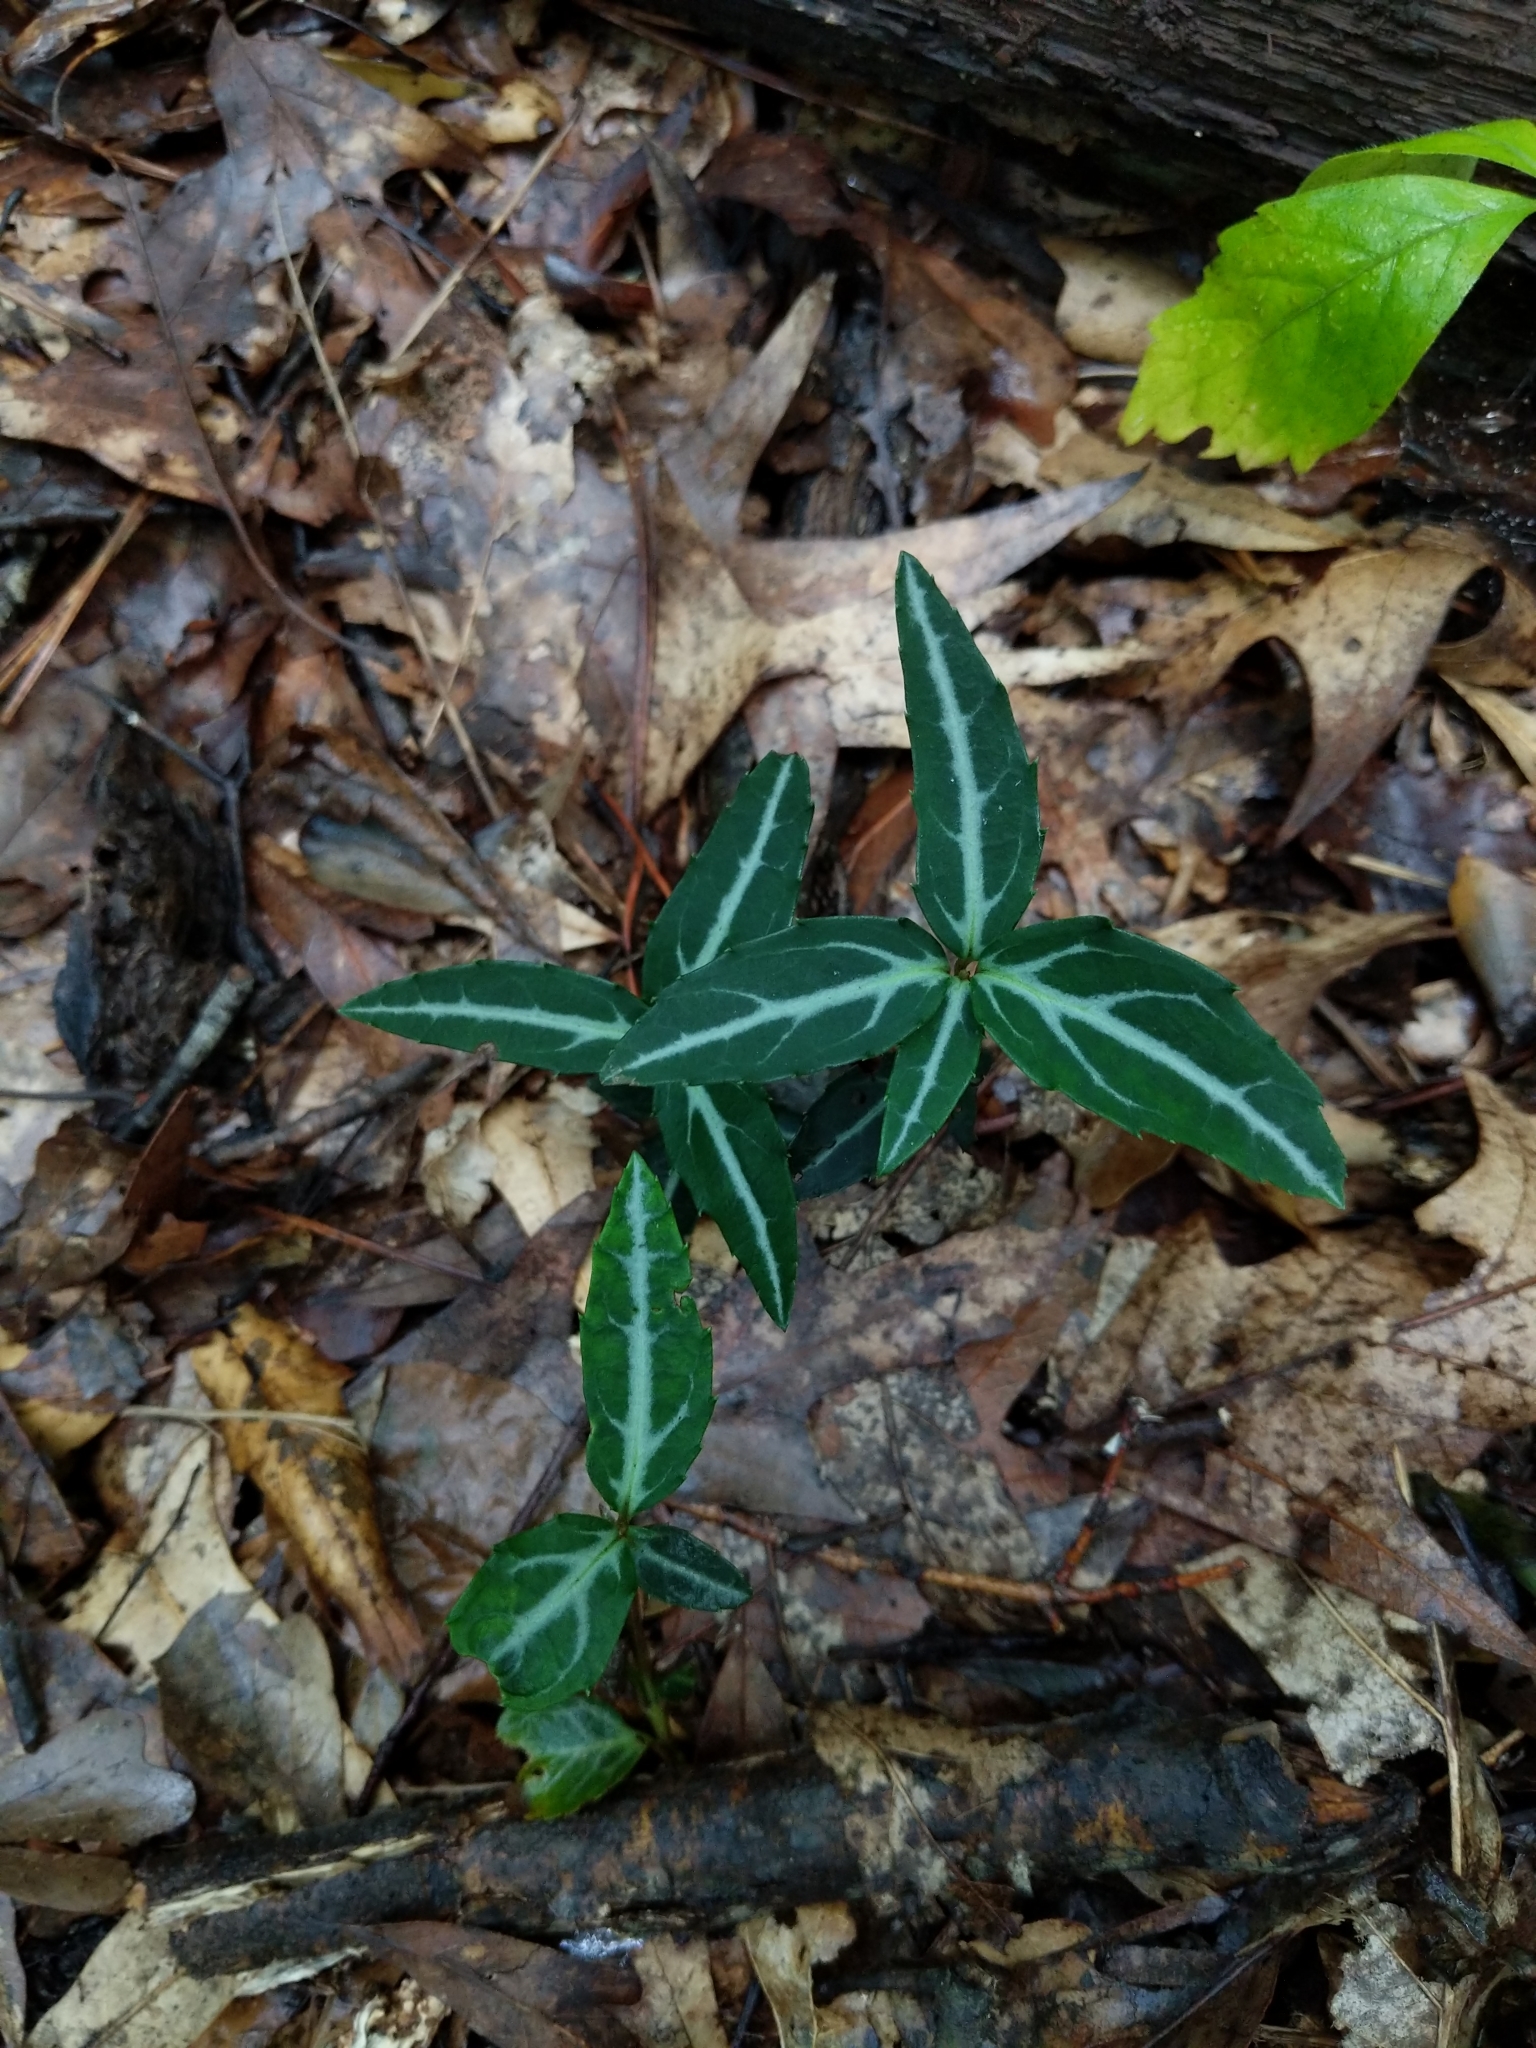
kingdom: Plantae
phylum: Tracheophyta
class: Magnoliopsida
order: Ericales
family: Ericaceae
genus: Chimaphila
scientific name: Chimaphila maculata
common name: Spotted pipsissewa
